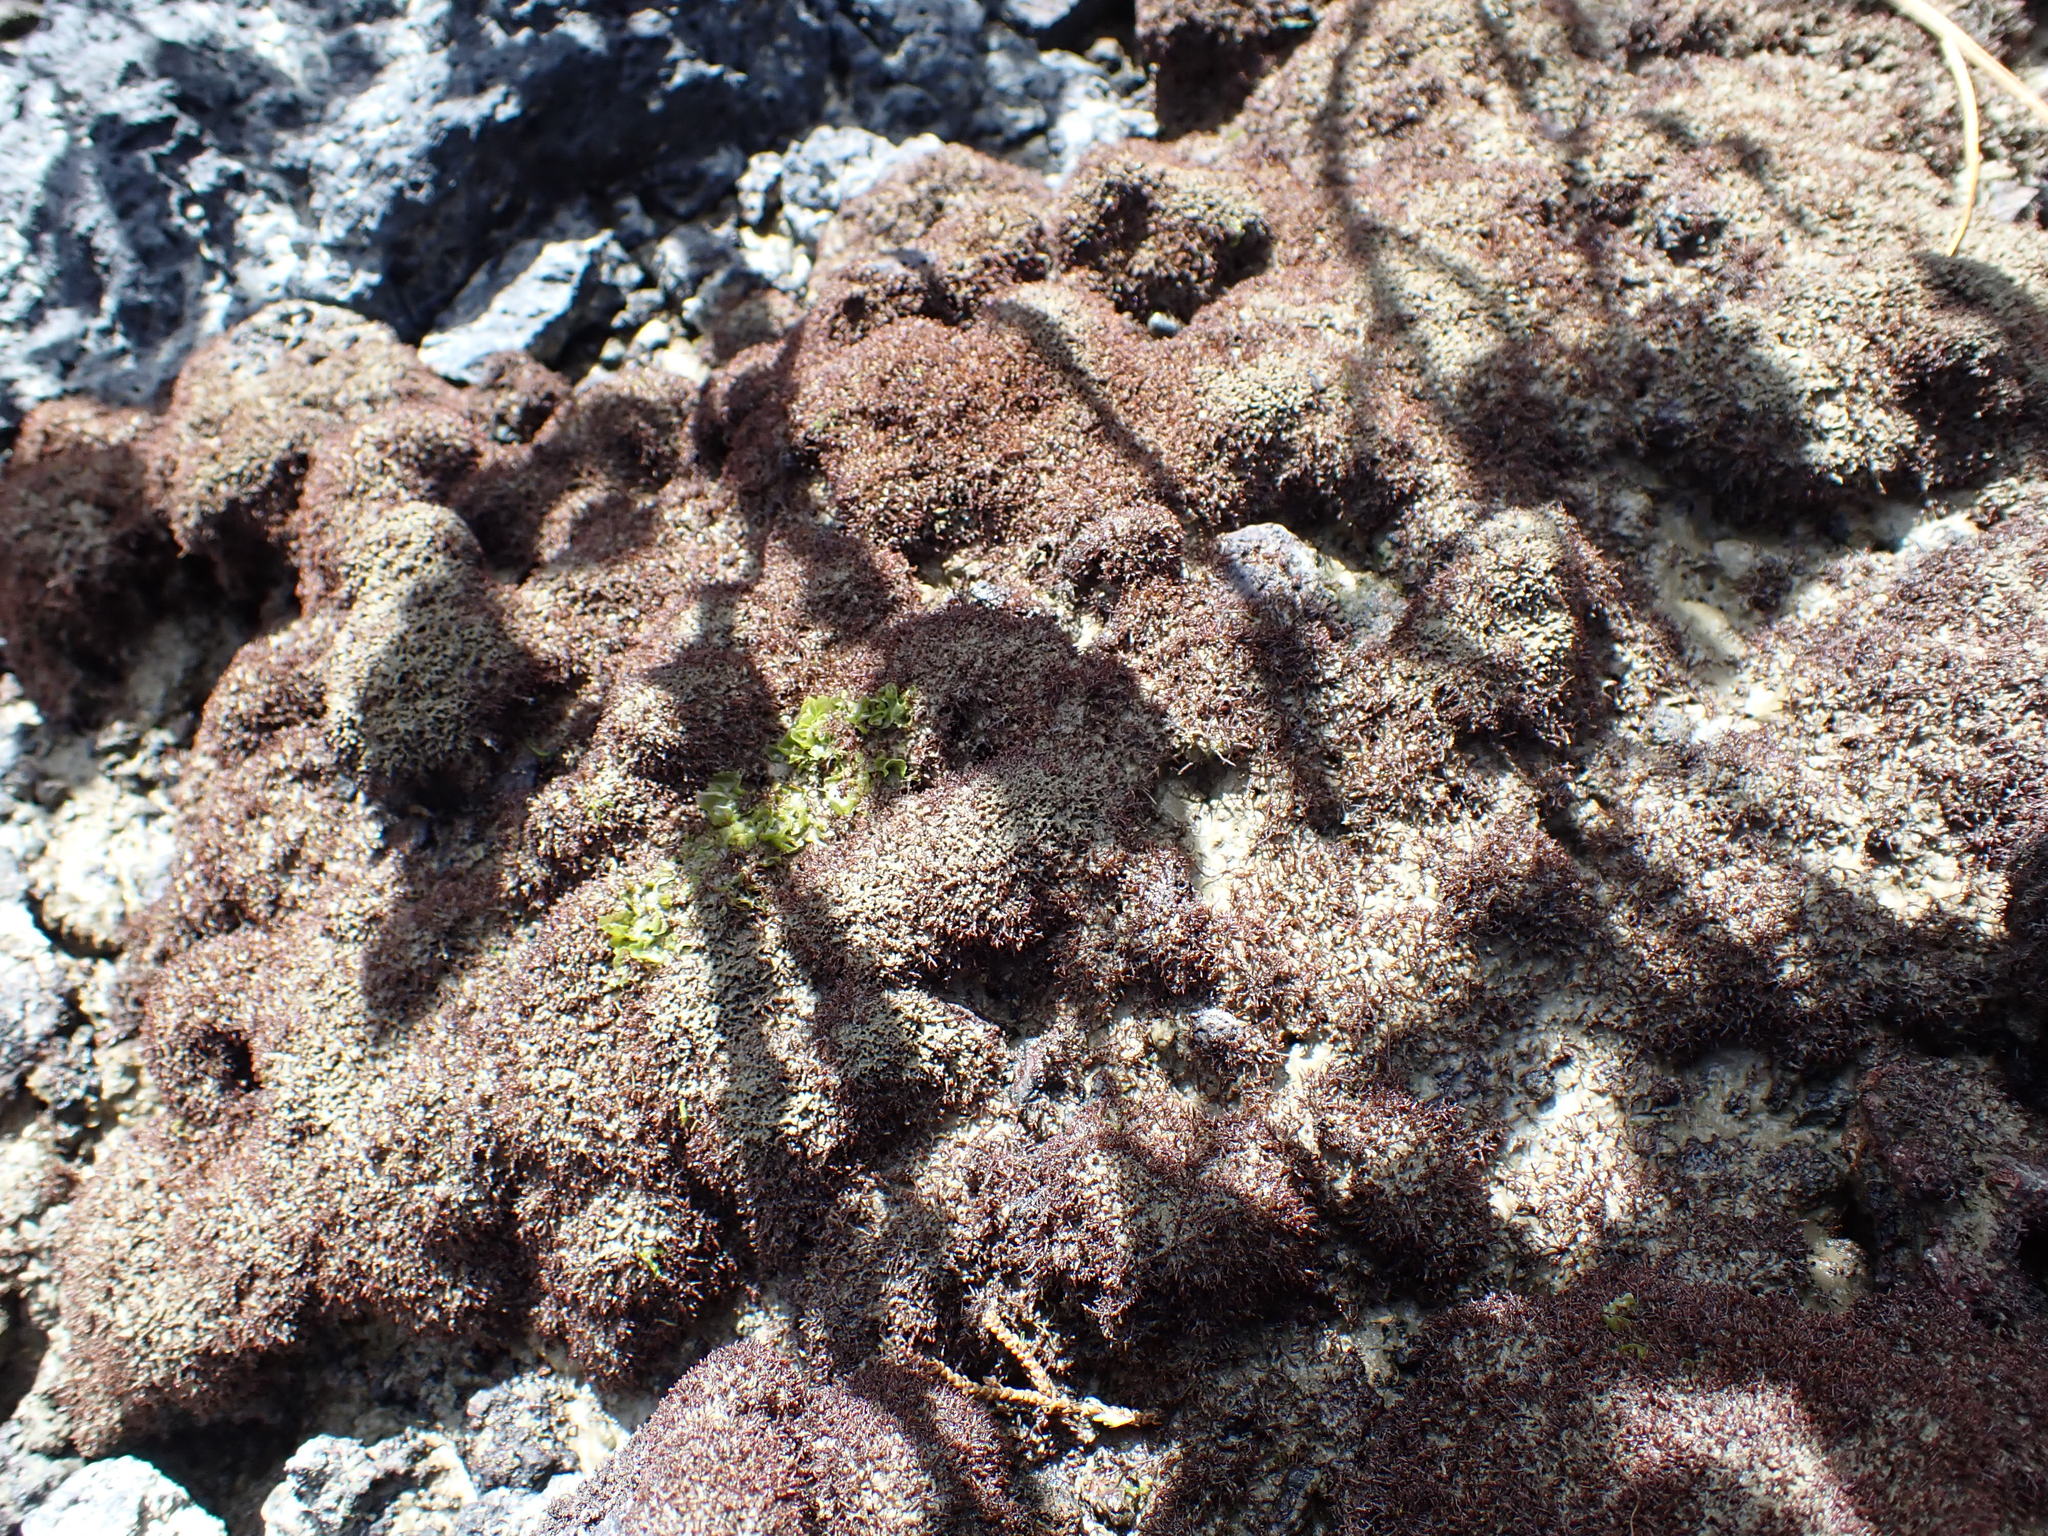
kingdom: Plantae
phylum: Rhodophyta
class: Florideophyceae
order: Gelidiales
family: Gelidiaceae
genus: Capreolia
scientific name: Capreolia implexa
